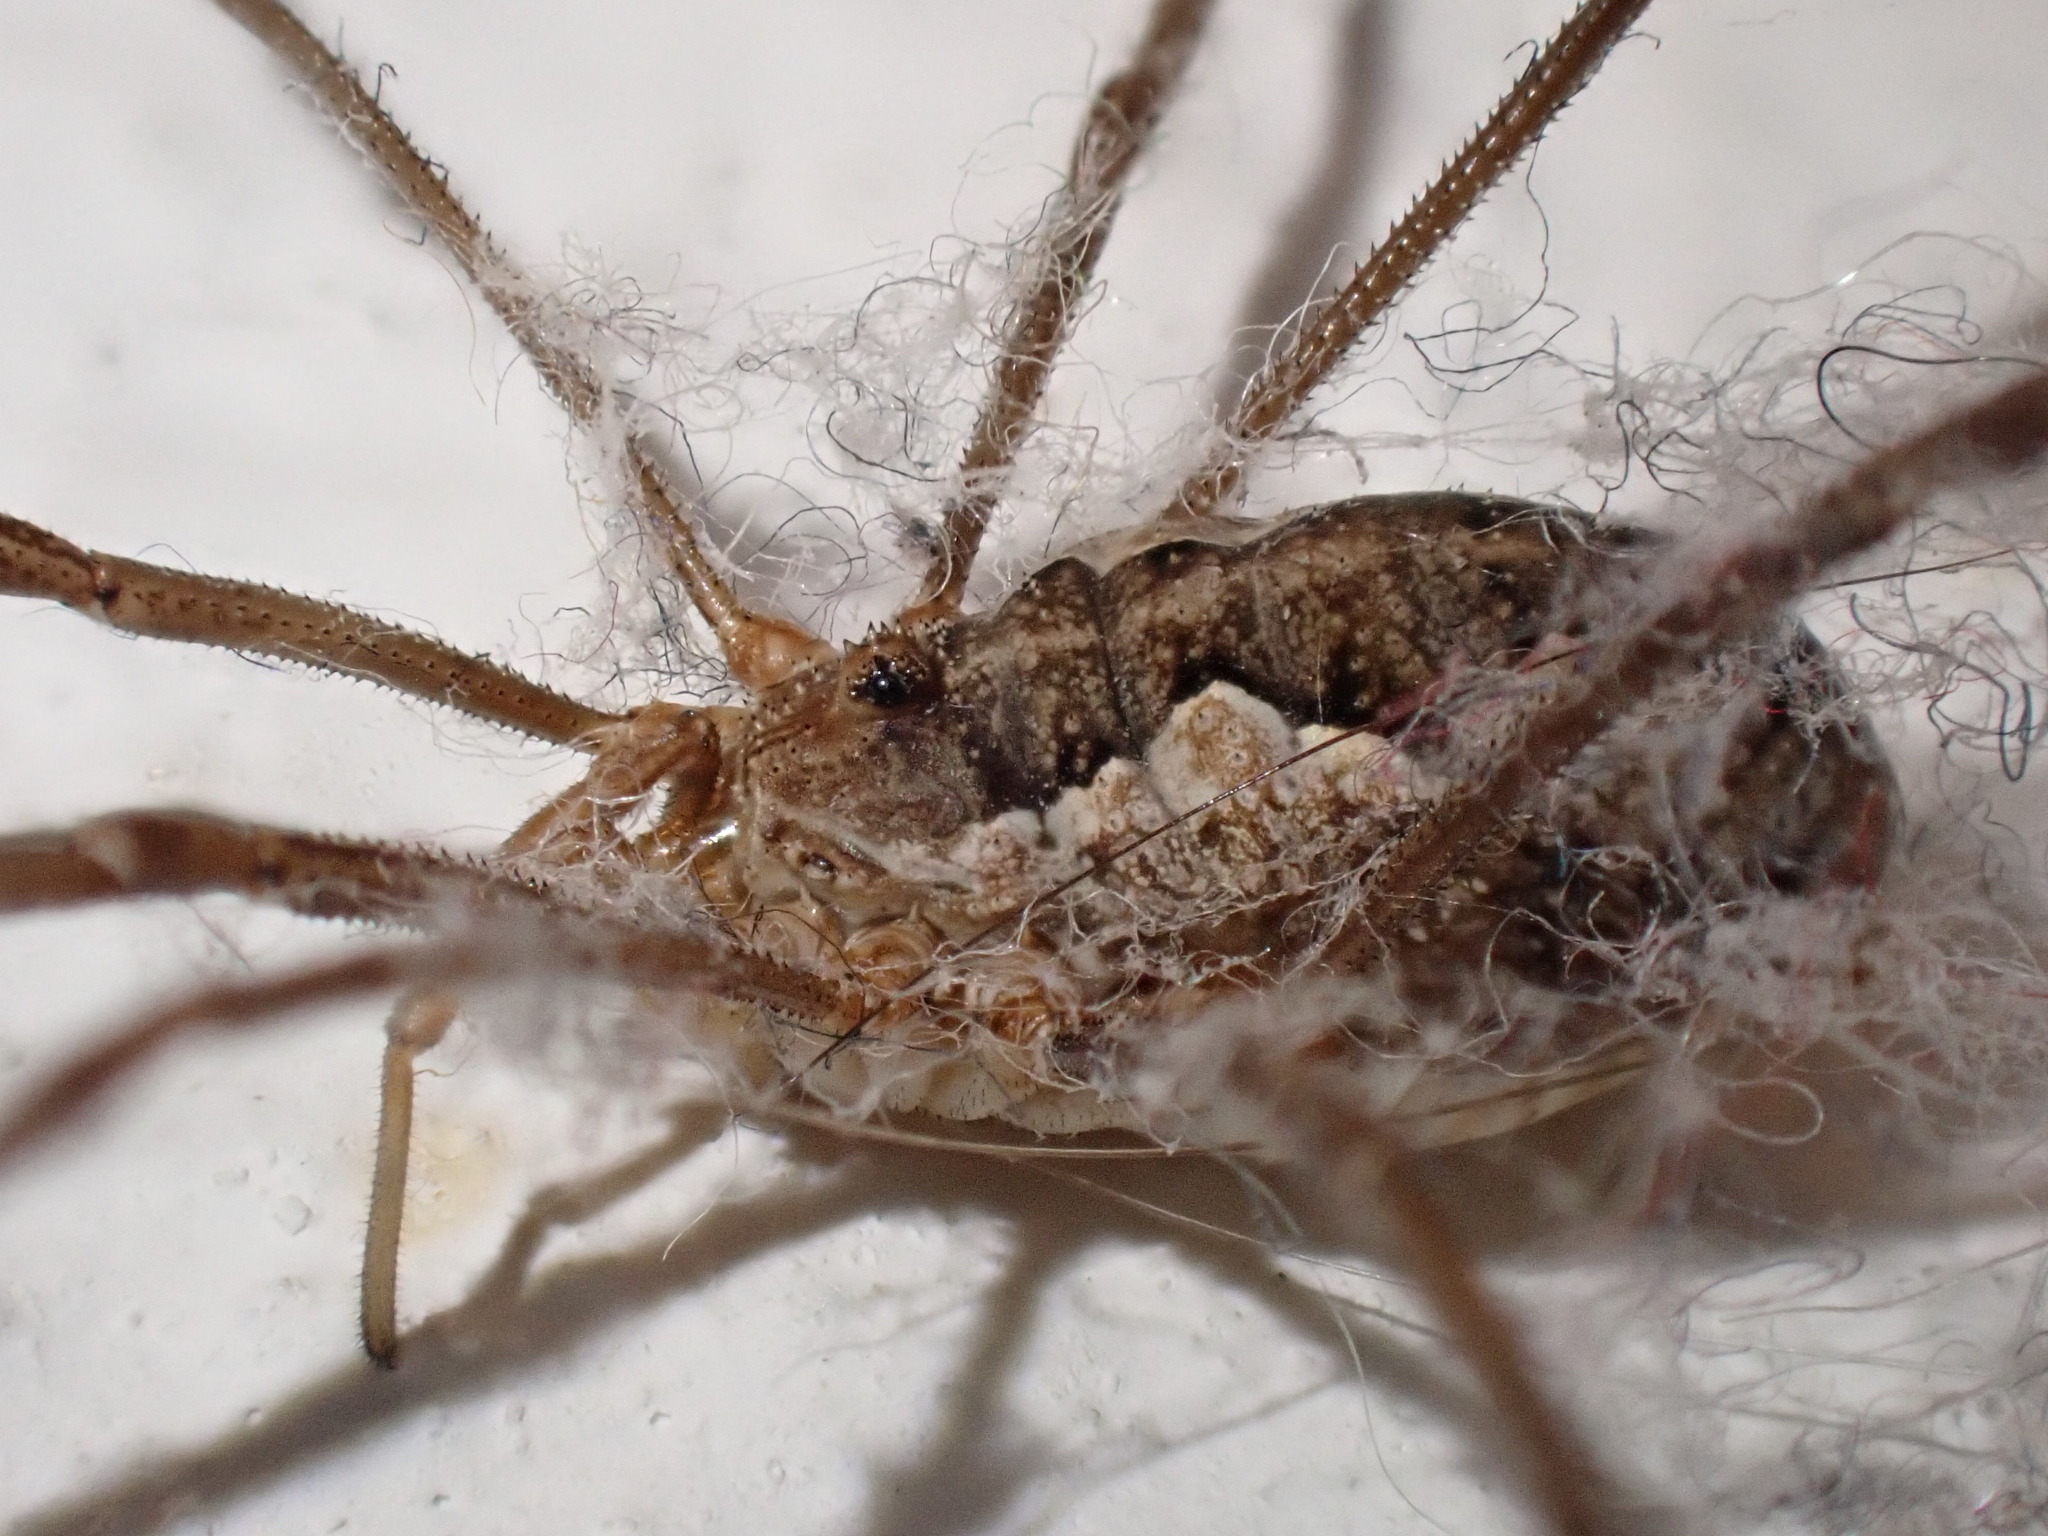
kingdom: Animalia
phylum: Arthropoda
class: Arachnida
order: Opiliones
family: Phalangiidae
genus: Phalangium
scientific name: Phalangium opilio
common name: Daddy longleg
